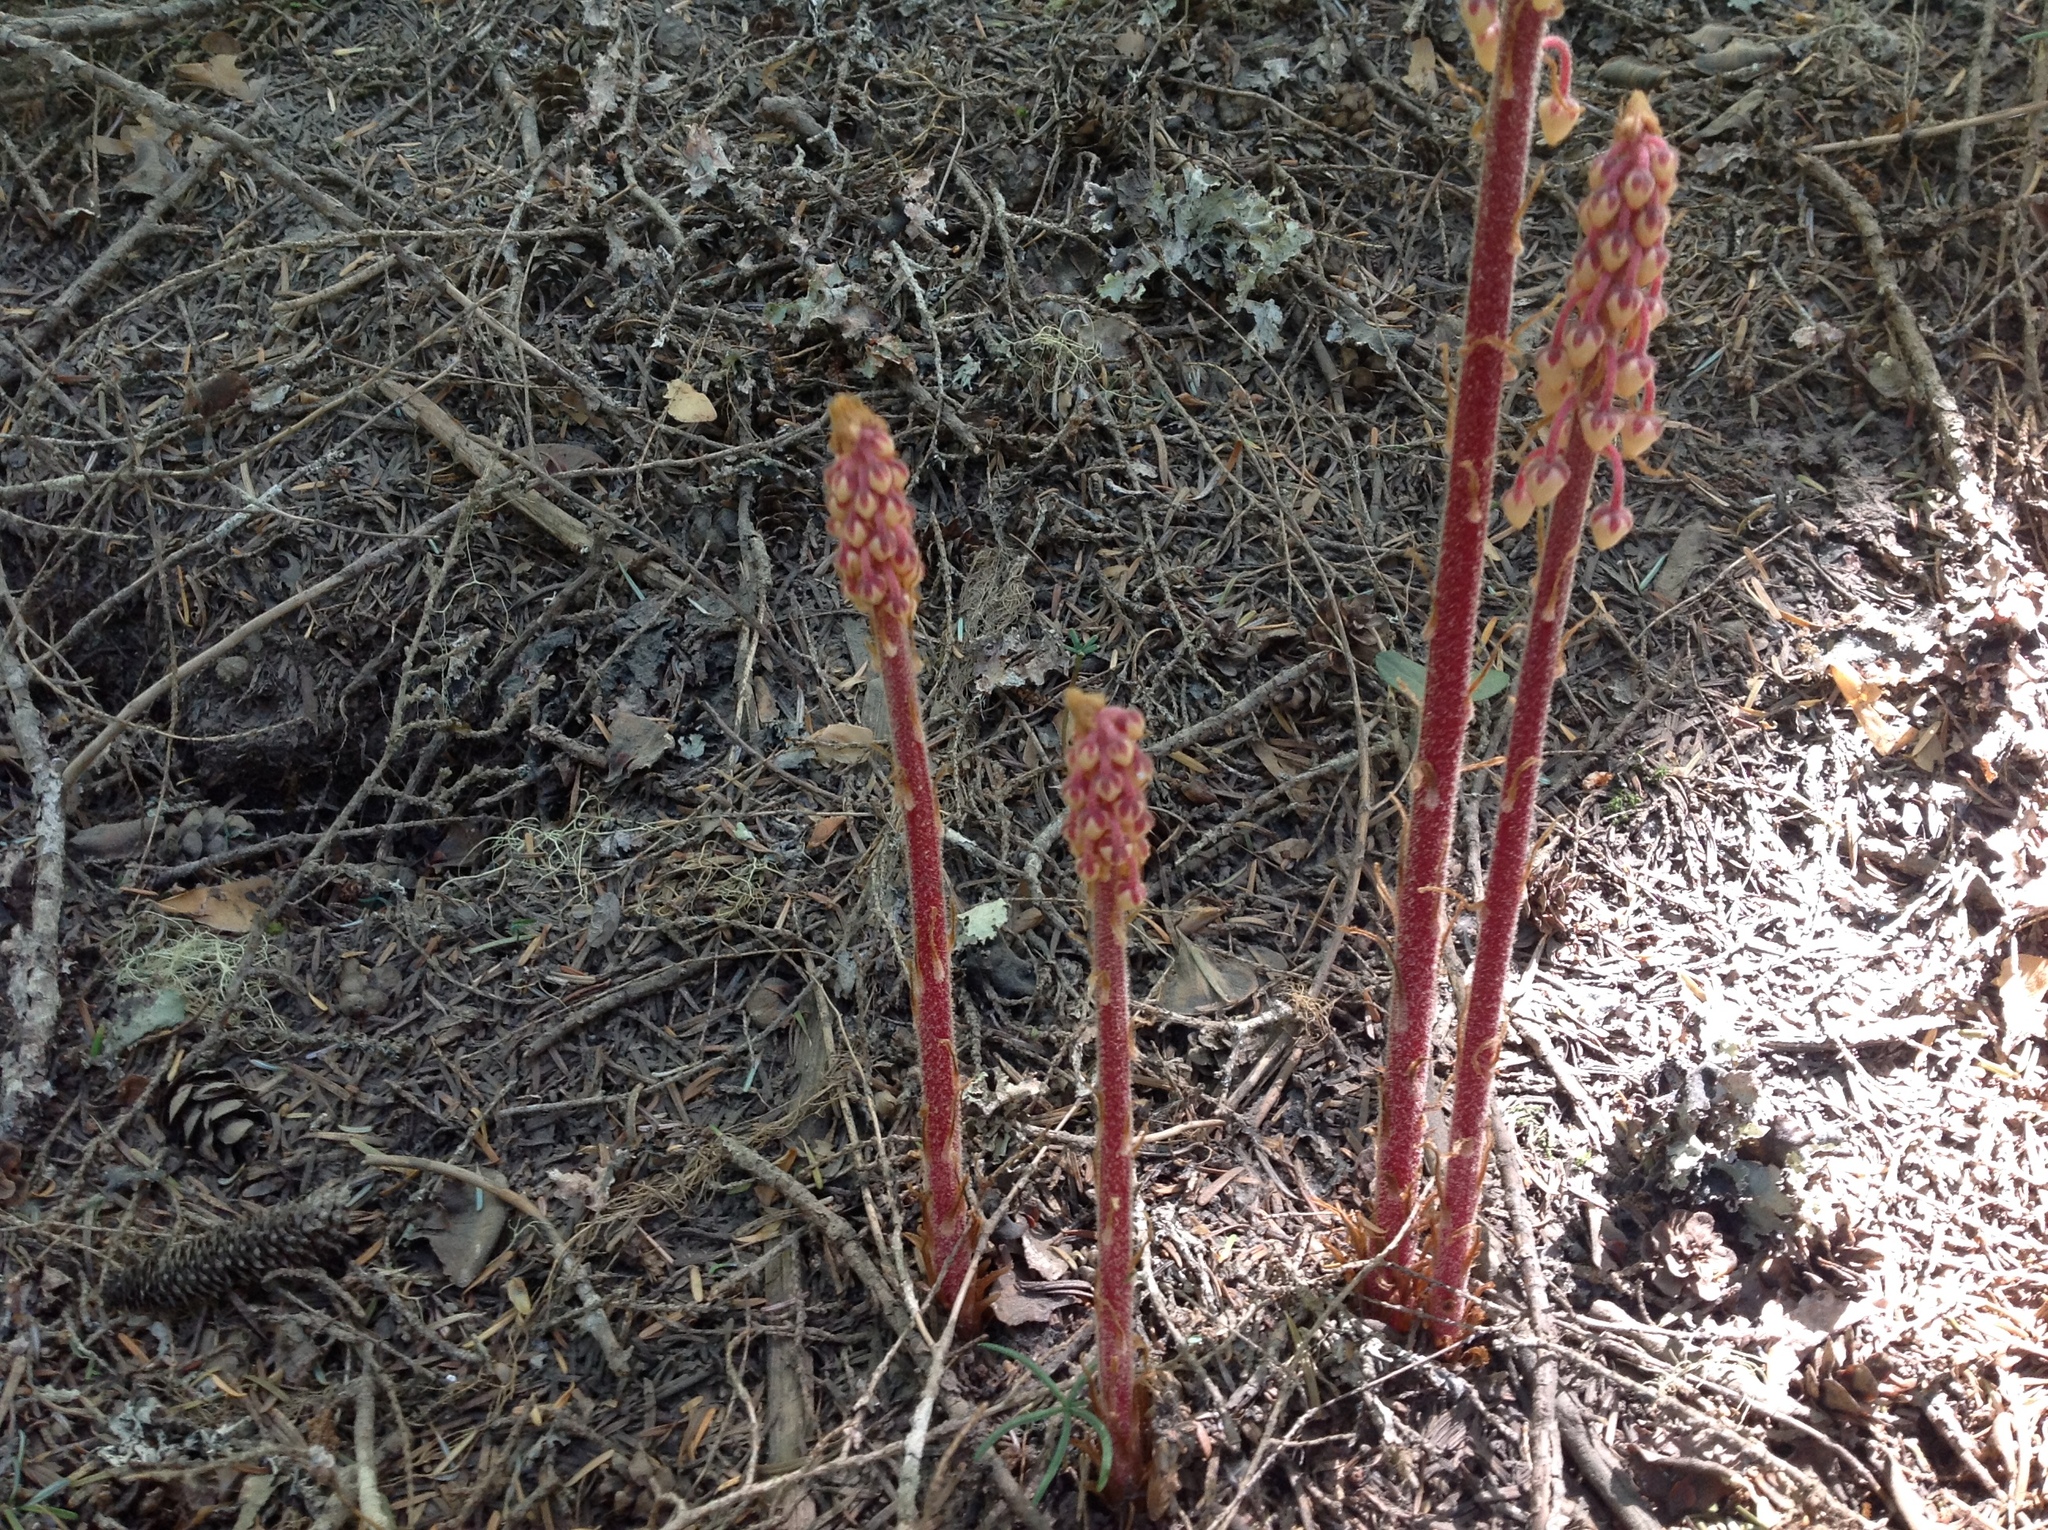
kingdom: Plantae
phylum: Tracheophyta
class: Magnoliopsida
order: Ericales
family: Ericaceae
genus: Pterospora
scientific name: Pterospora andromedea
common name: Giant bird's-nest
